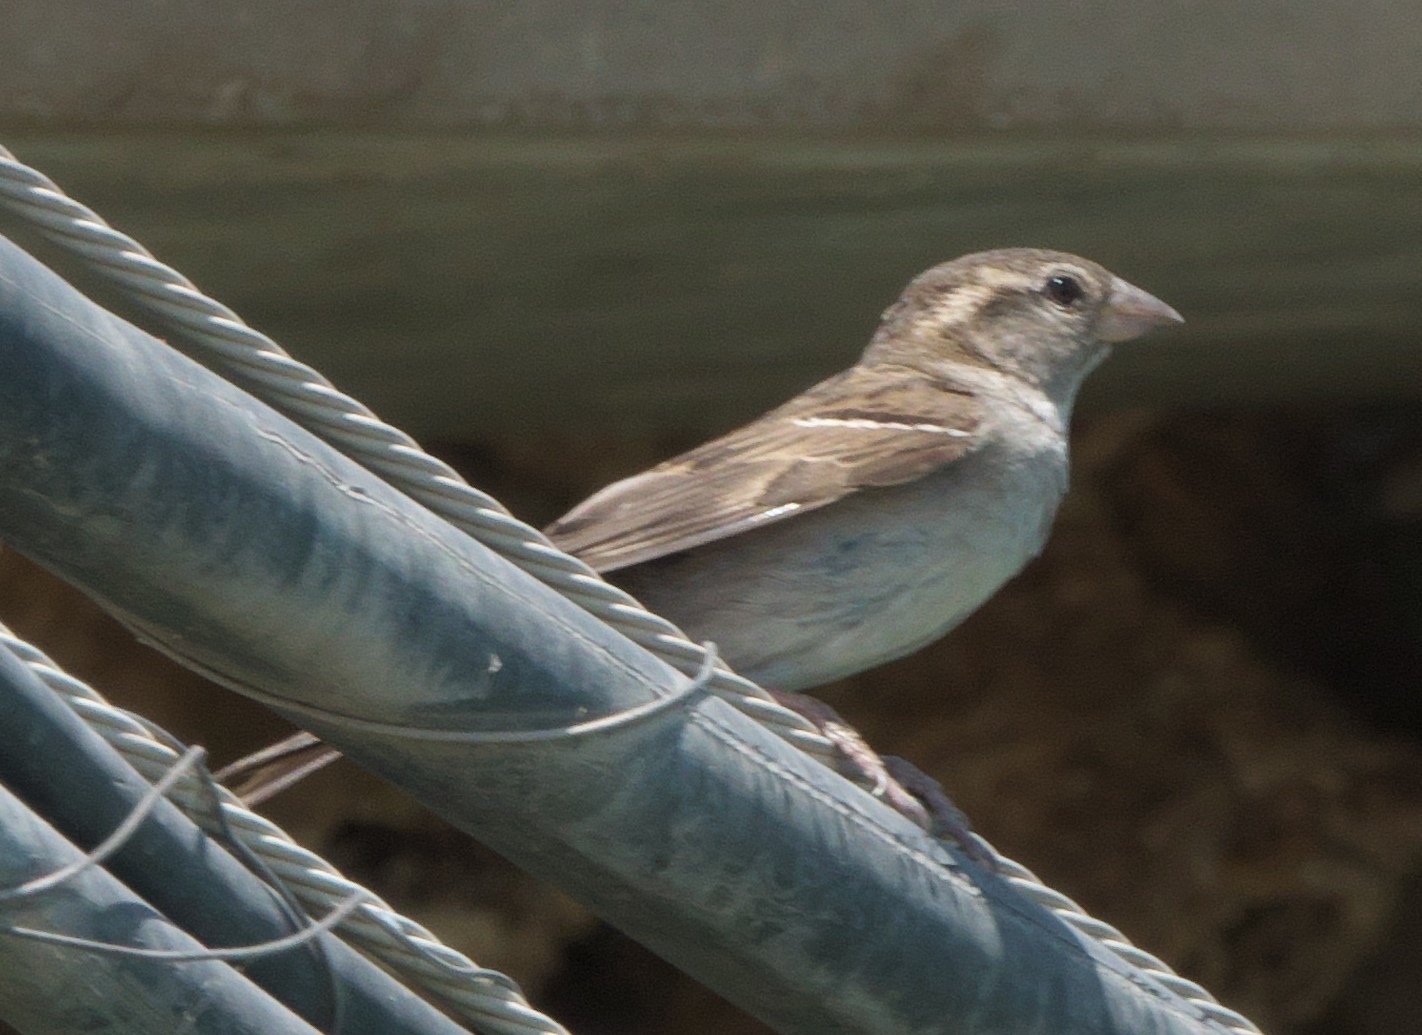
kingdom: Animalia
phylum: Chordata
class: Aves
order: Passeriformes
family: Passeridae
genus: Passer
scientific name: Passer domesticus
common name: House sparrow
